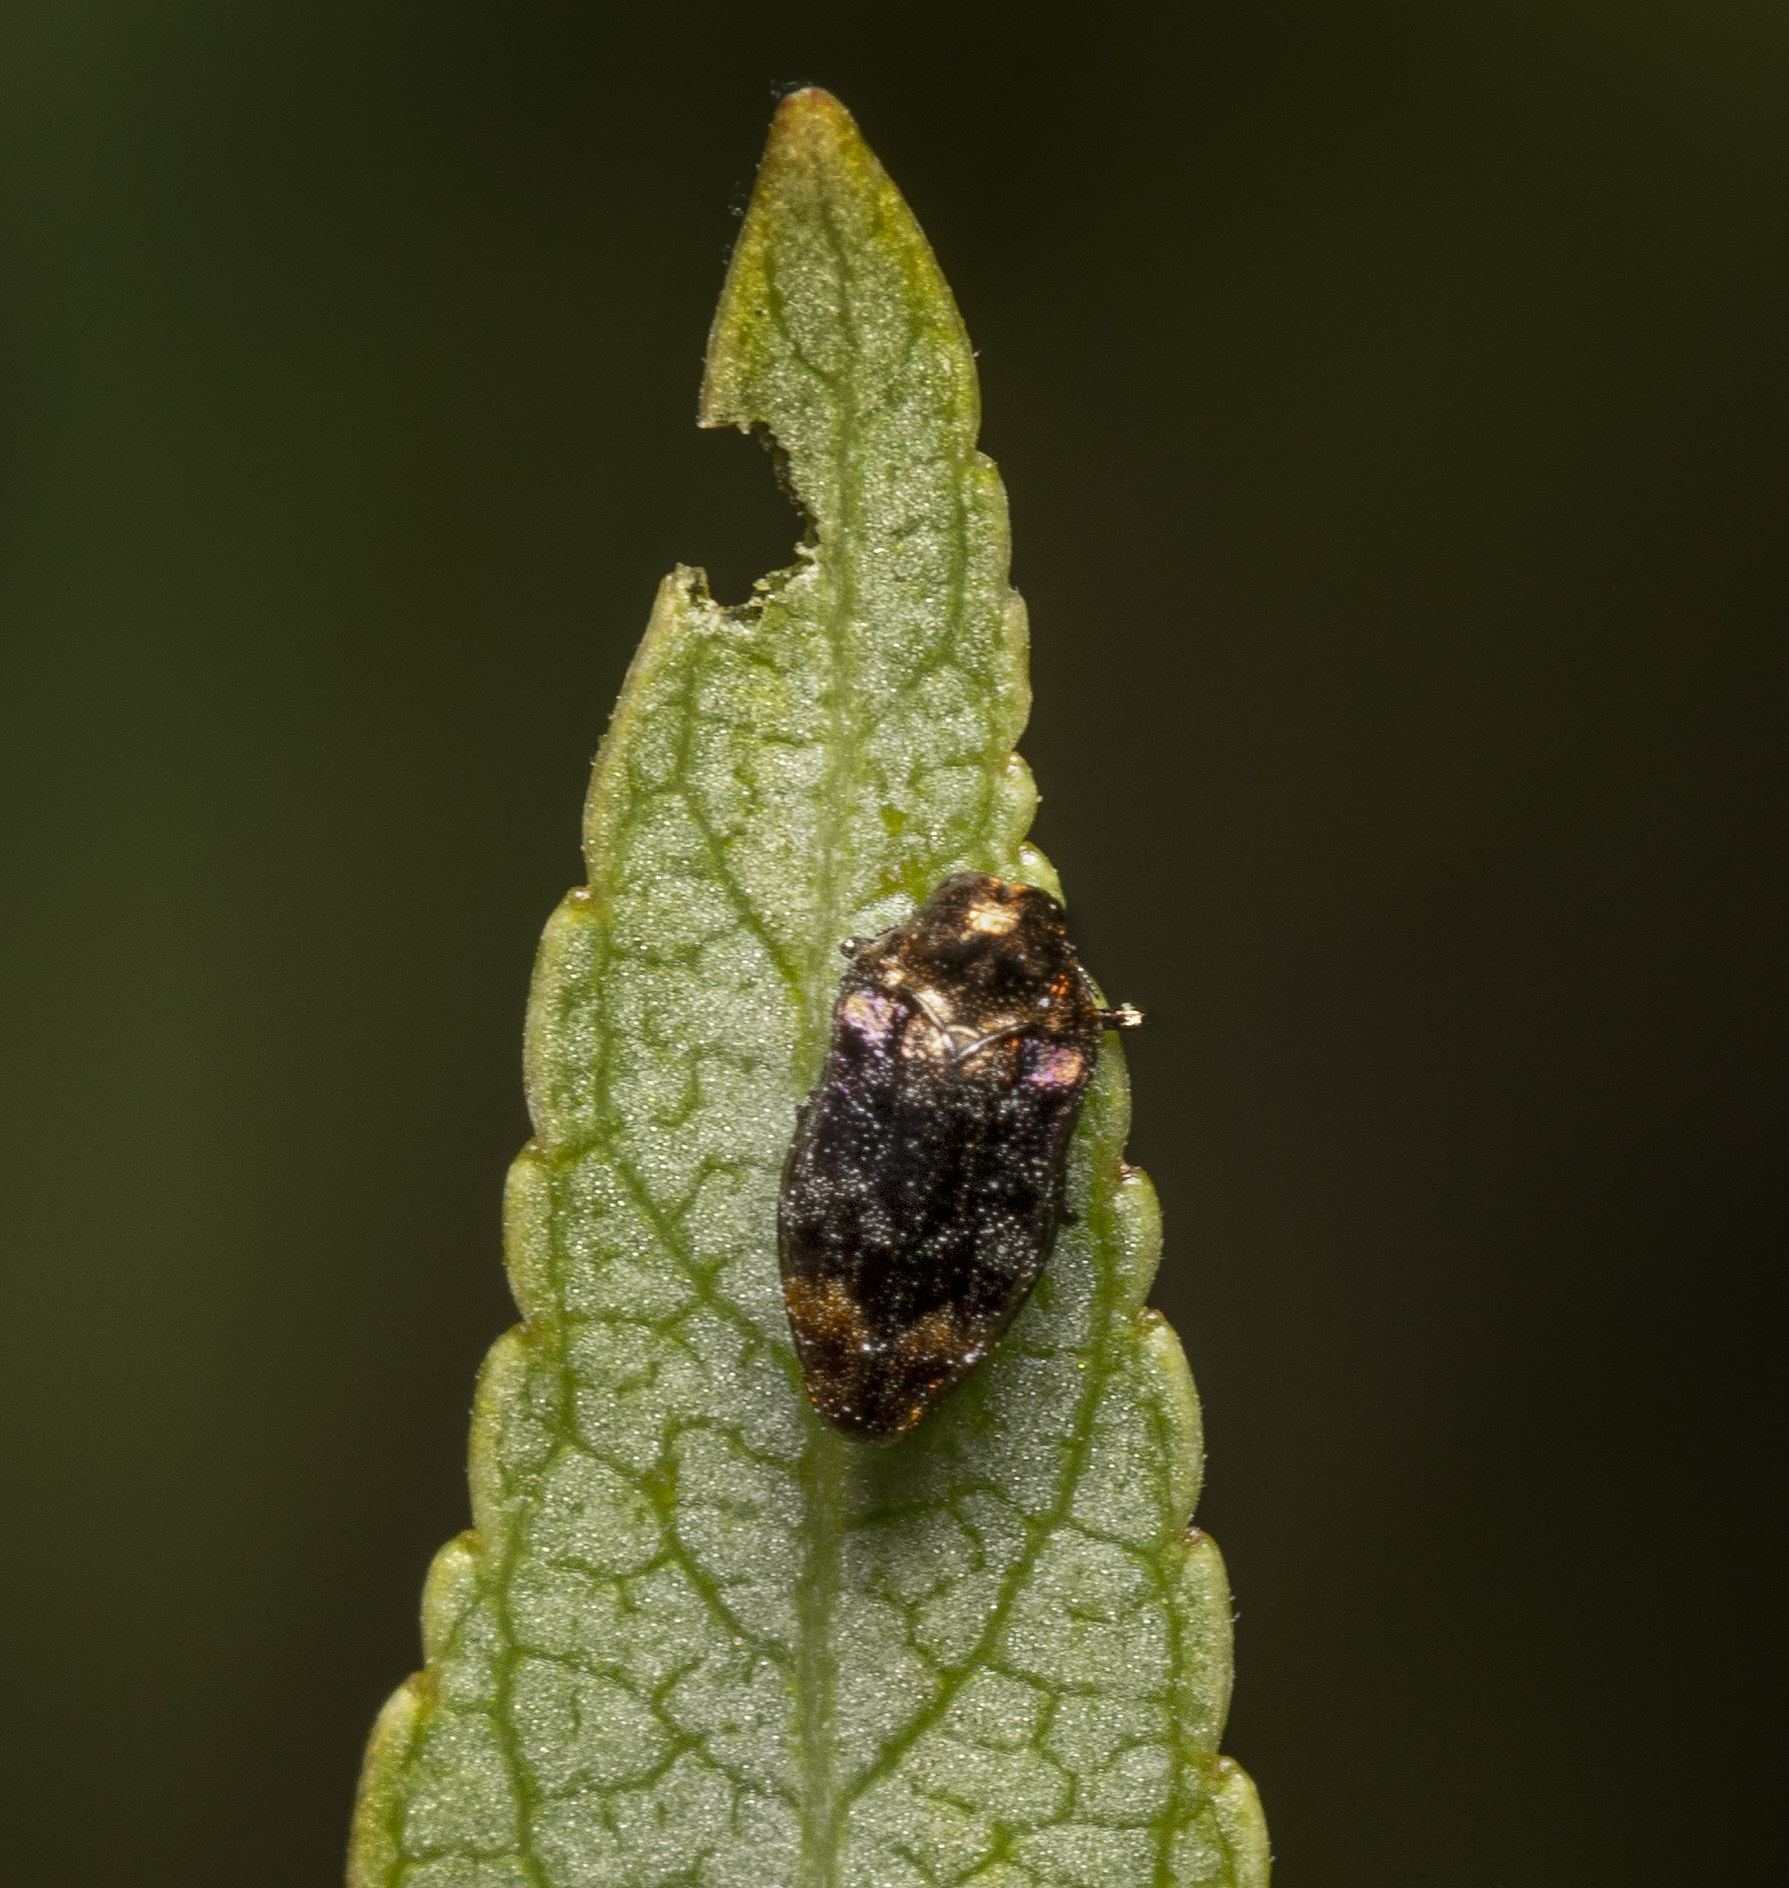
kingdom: Animalia
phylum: Arthropoda
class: Insecta
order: Coleoptera
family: Buprestidae
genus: Brachys
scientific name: Brachys aerosus
